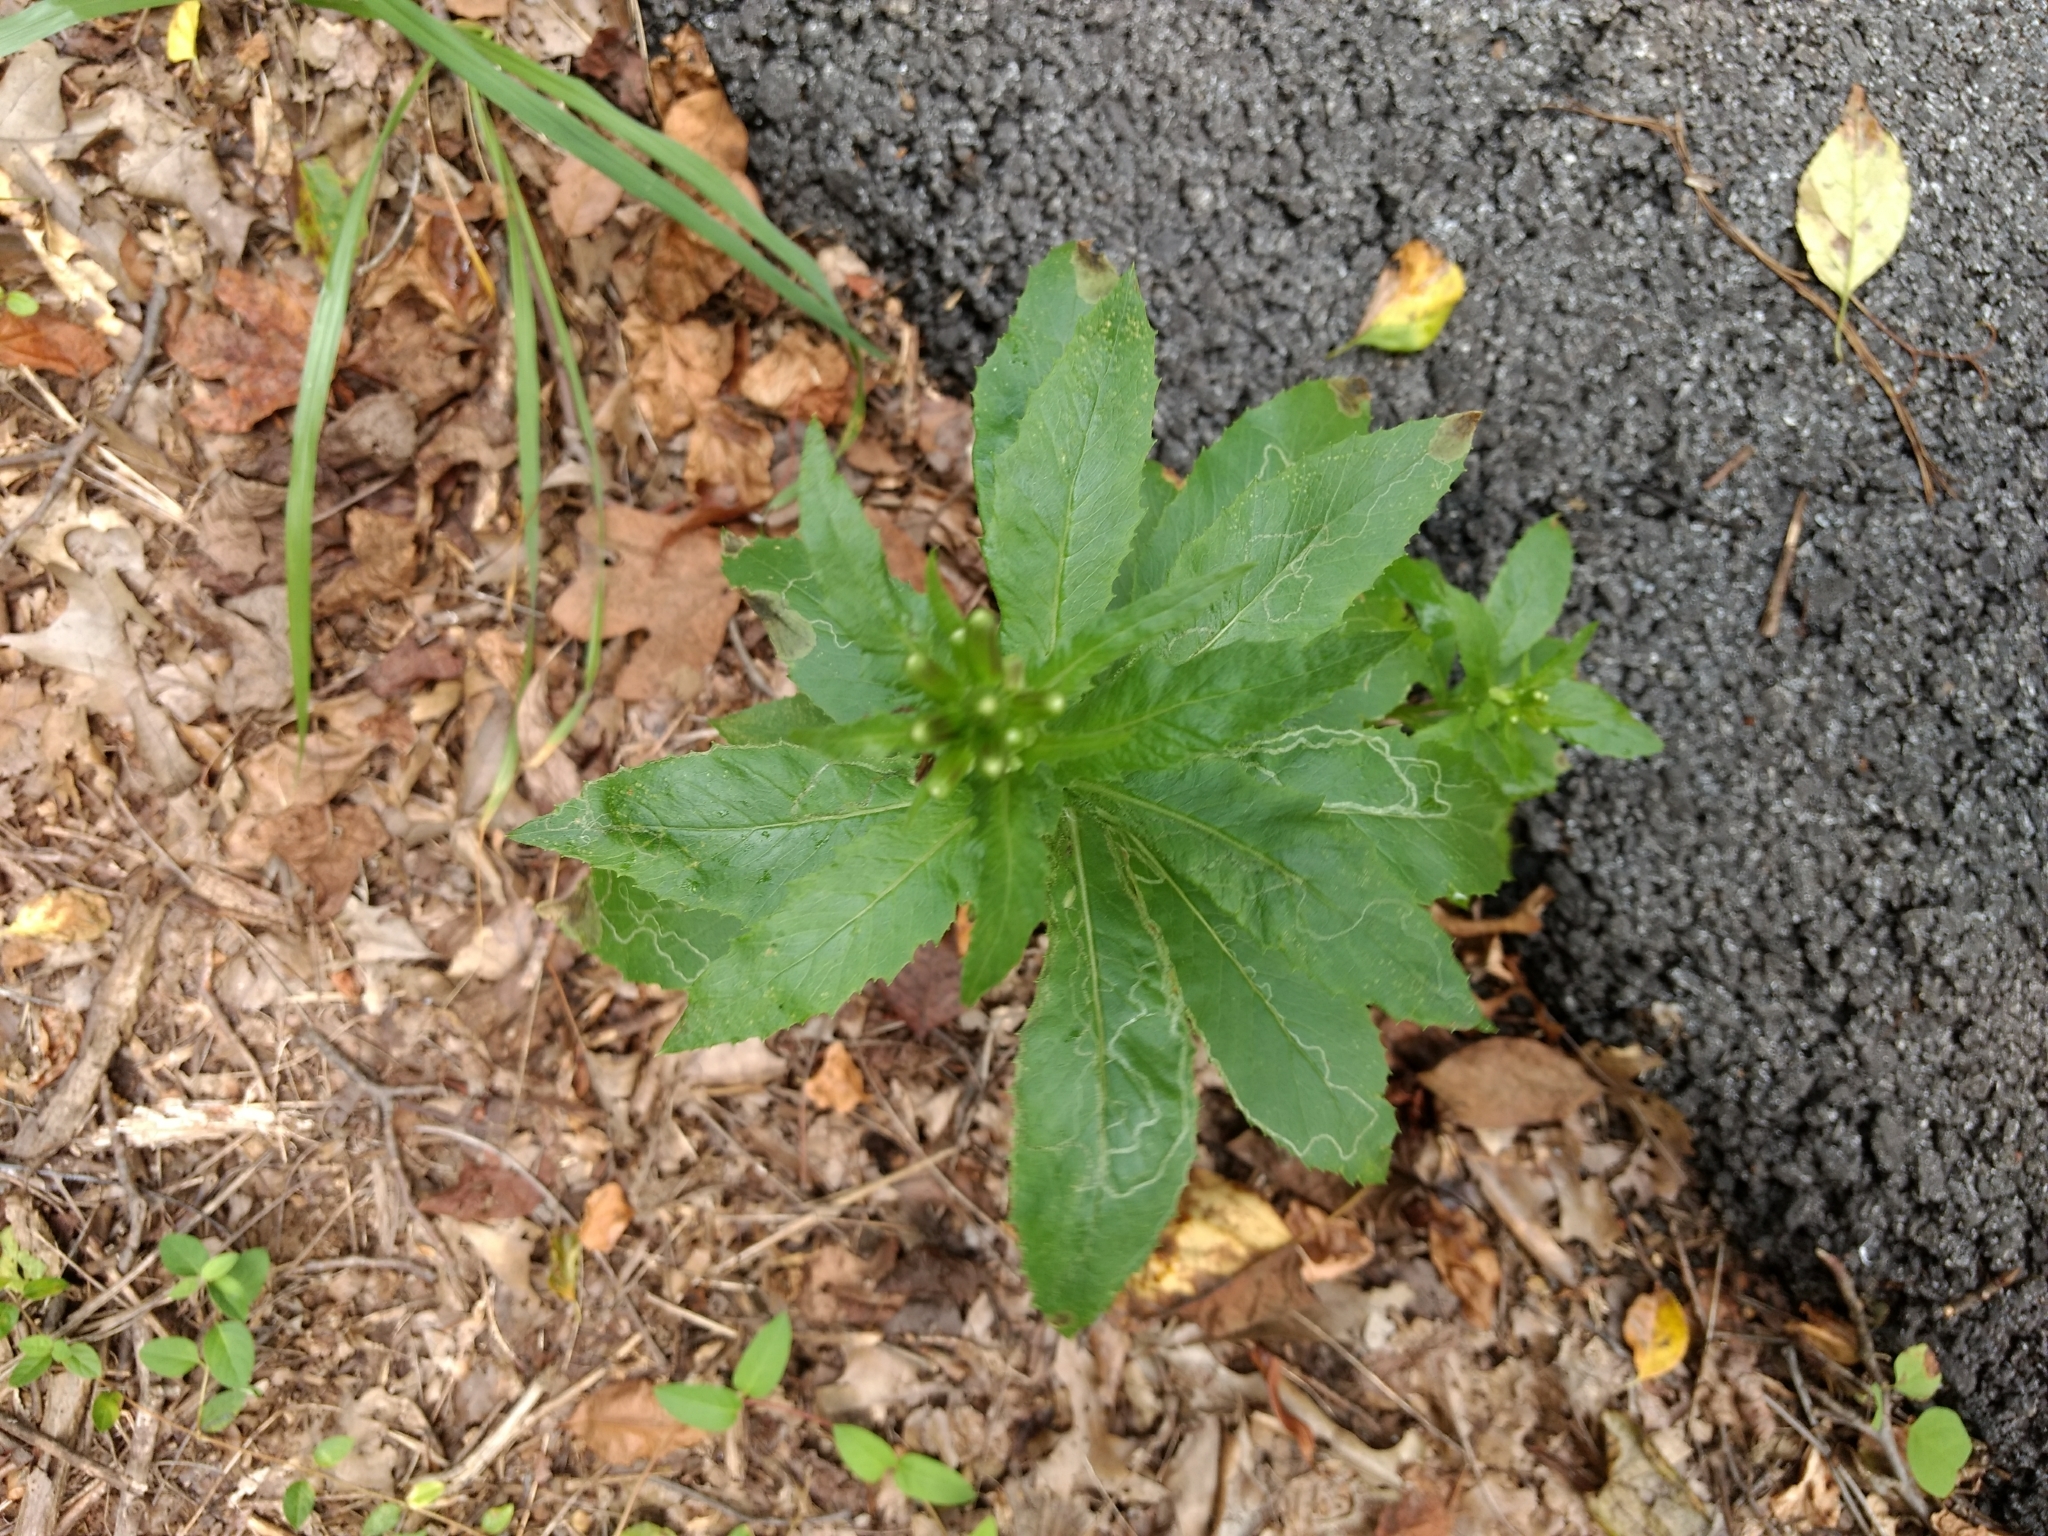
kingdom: Plantae
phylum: Tracheophyta
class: Magnoliopsida
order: Asterales
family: Asteraceae
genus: Erechtites
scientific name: Erechtites hieraciifolius
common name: American burnweed
